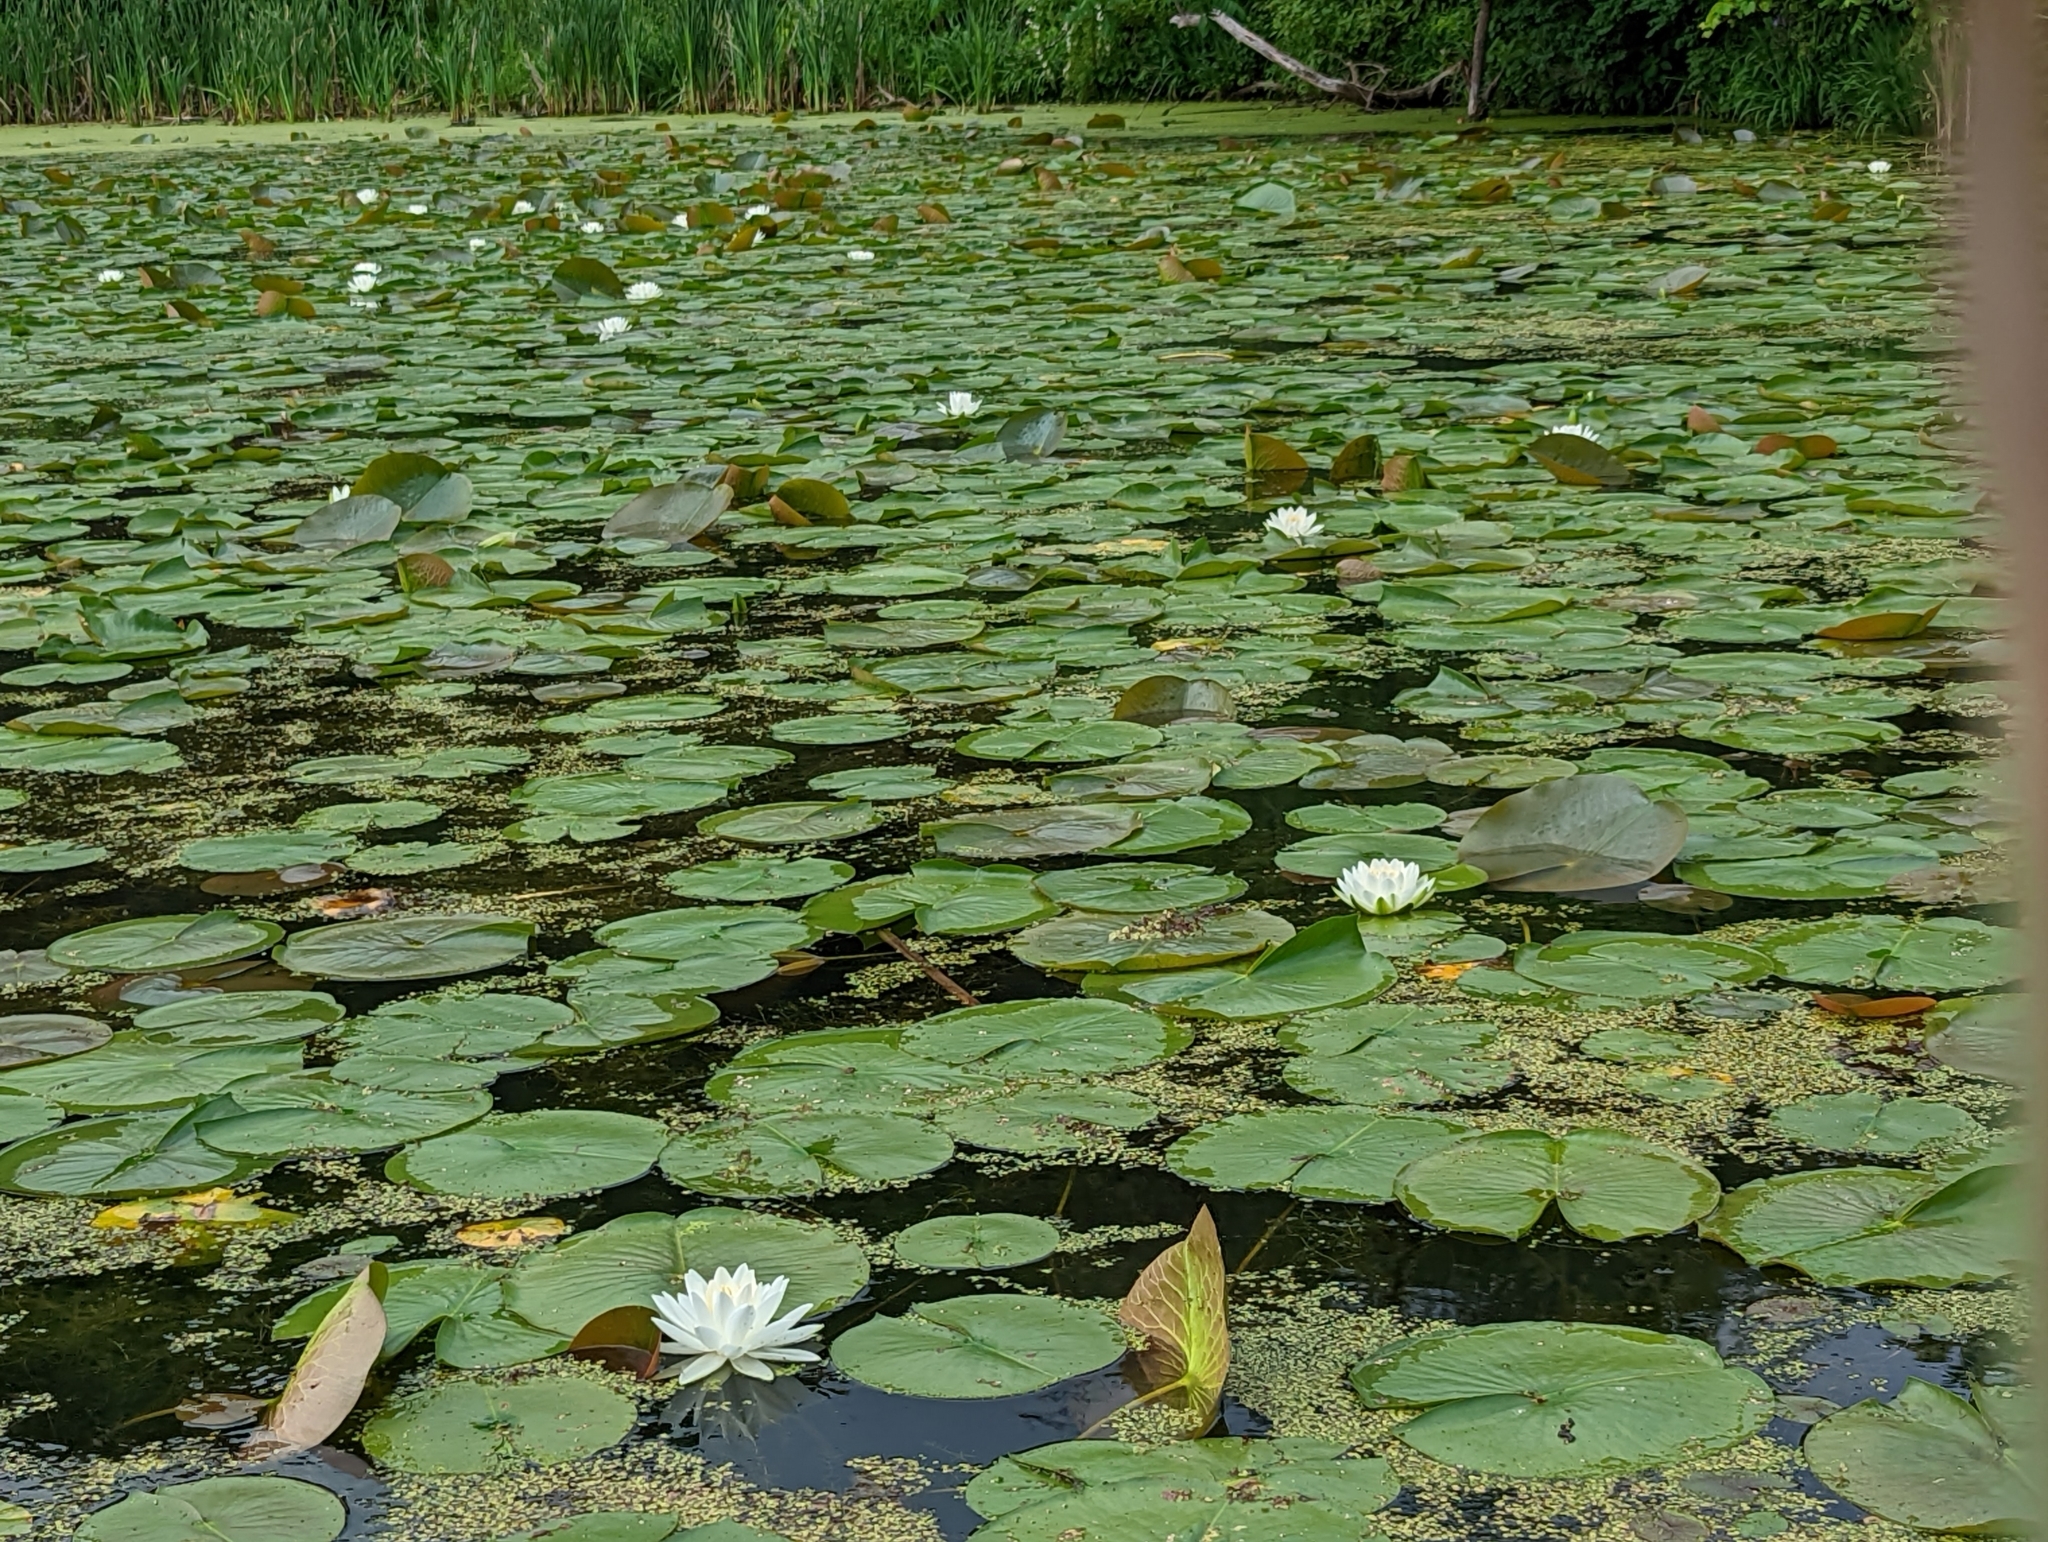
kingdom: Plantae
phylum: Tracheophyta
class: Magnoliopsida
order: Nymphaeales
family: Nymphaeaceae
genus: Nymphaea
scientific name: Nymphaea odorata
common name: Fragrant water-lily
